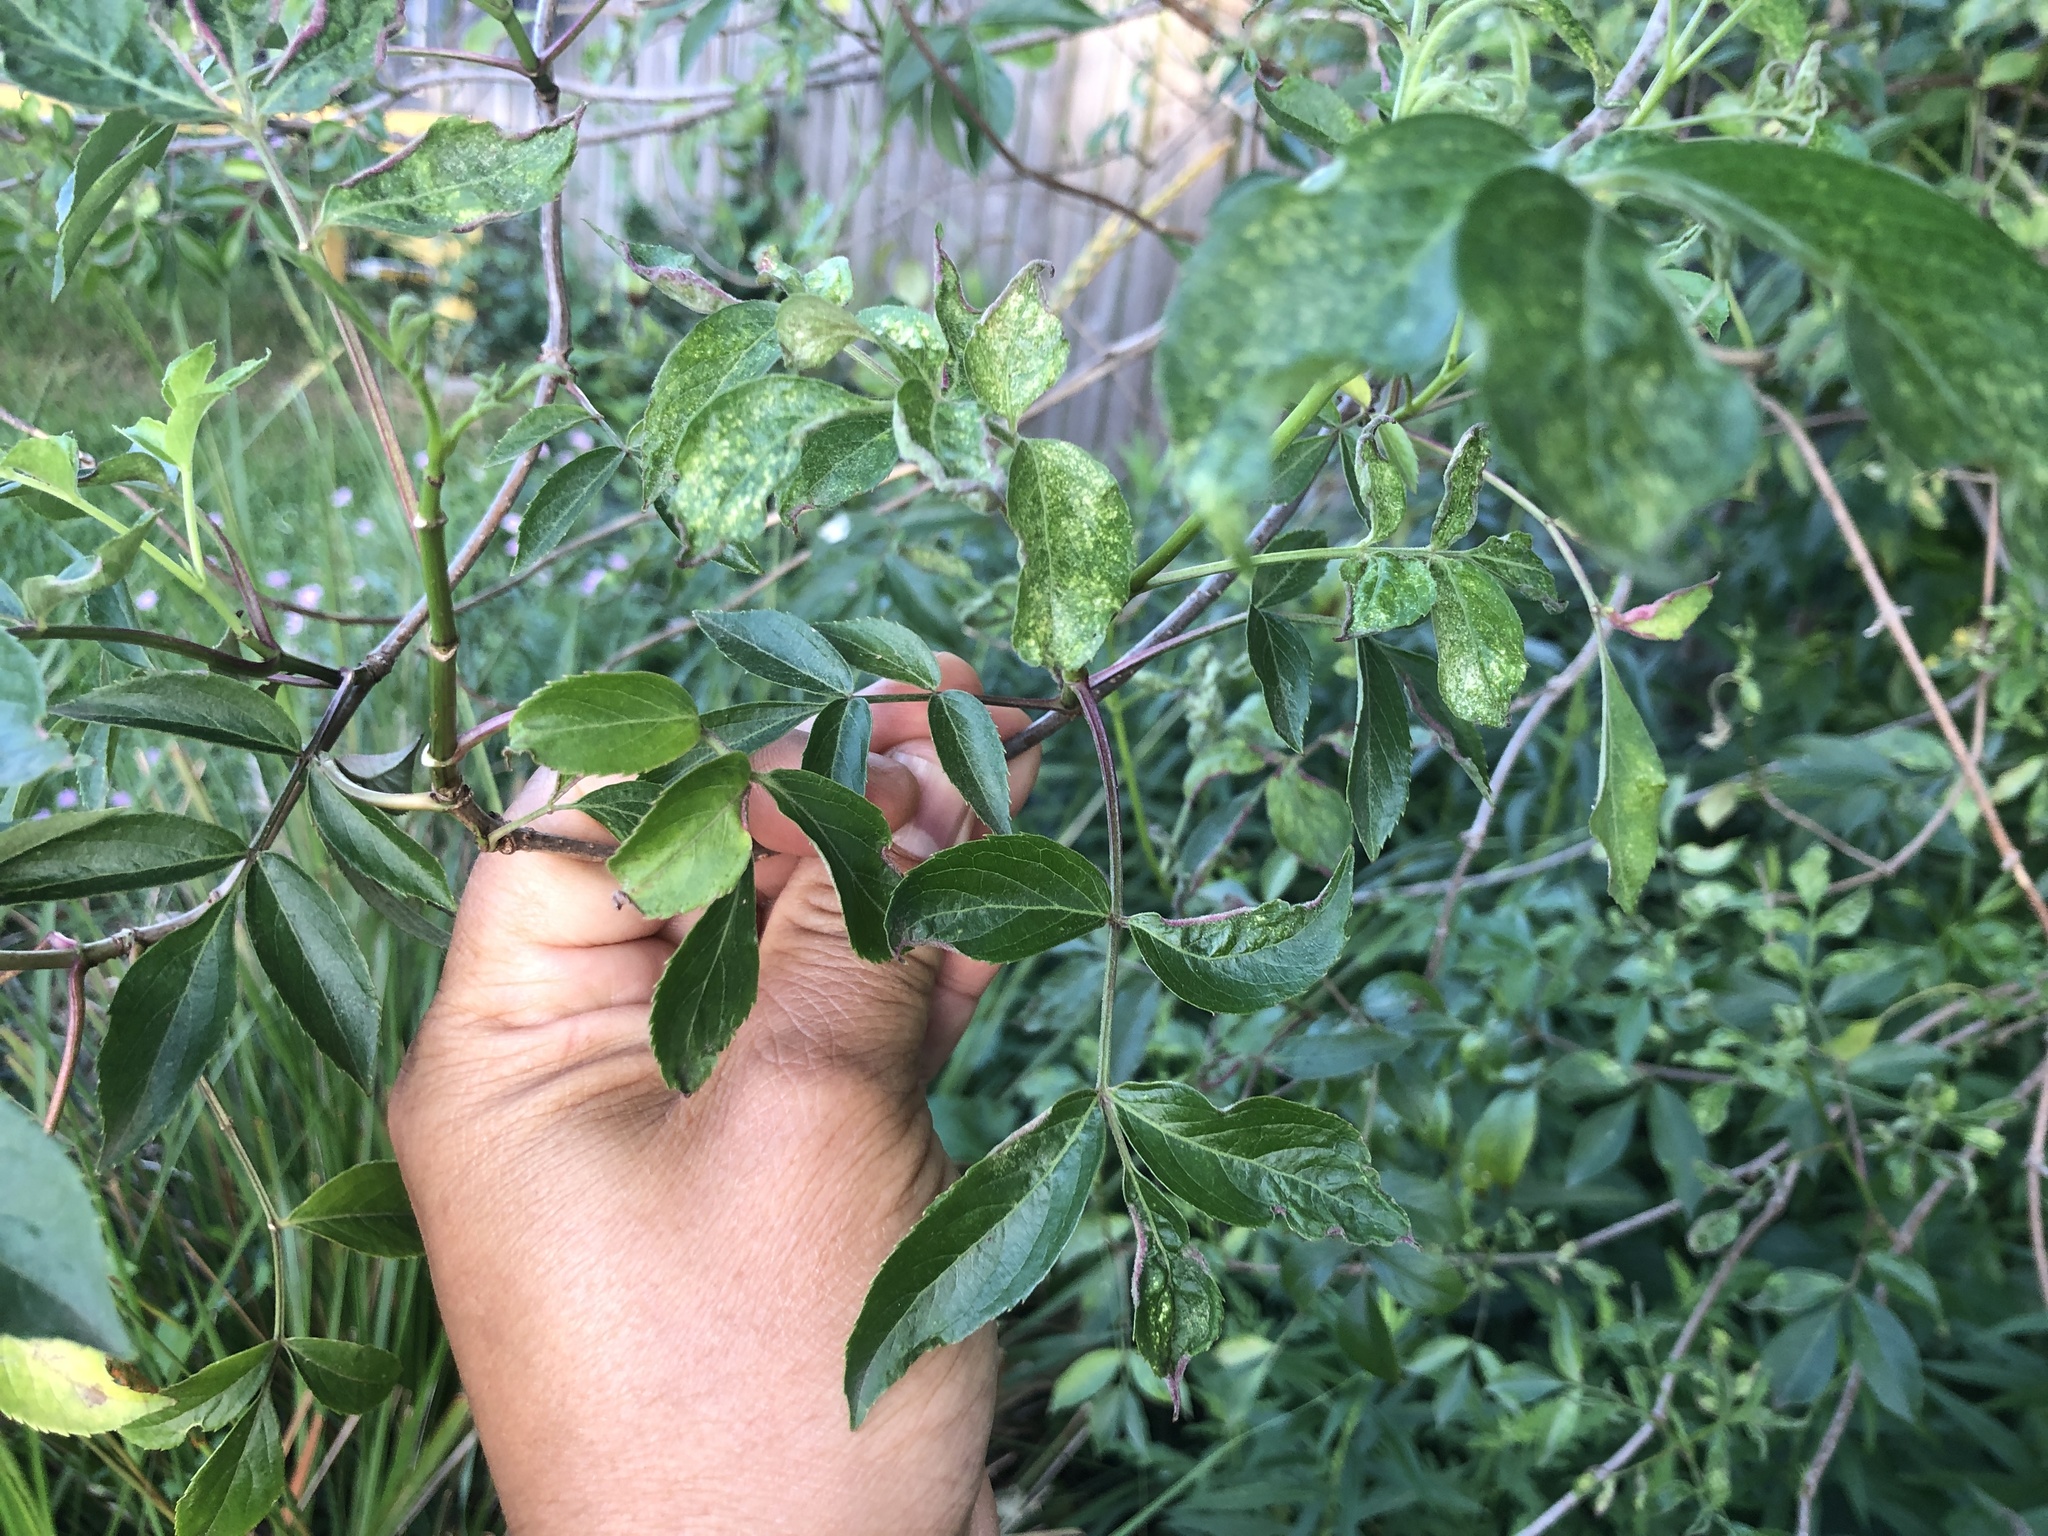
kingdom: Plantae
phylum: Tracheophyta
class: Magnoliopsida
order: Dipsacales
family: Viburnaceae
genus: Sambucus
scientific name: Sambucus canadensis
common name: American elder
